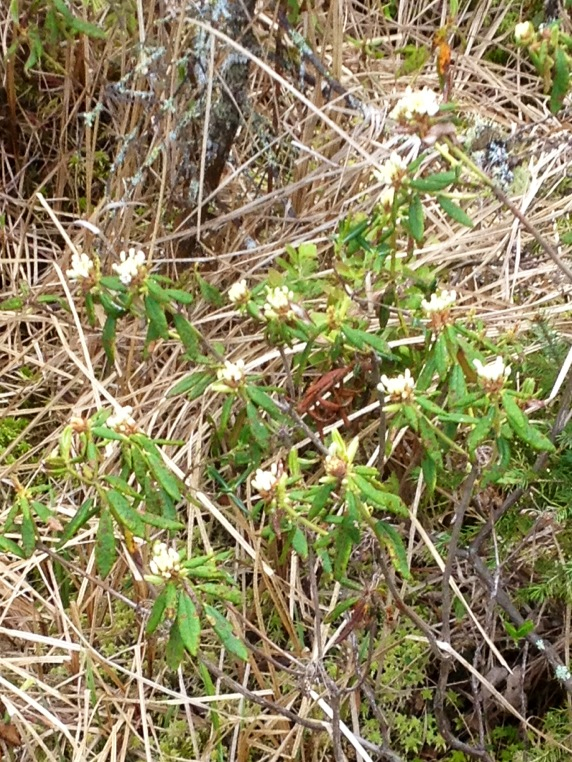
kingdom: Plantae
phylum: Tracheophyta
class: Magnoliopsida
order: Ericales
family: Ericaceae
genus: Rhododendron
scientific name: Rhododendron groenlandicum
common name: Bog labrador tea
